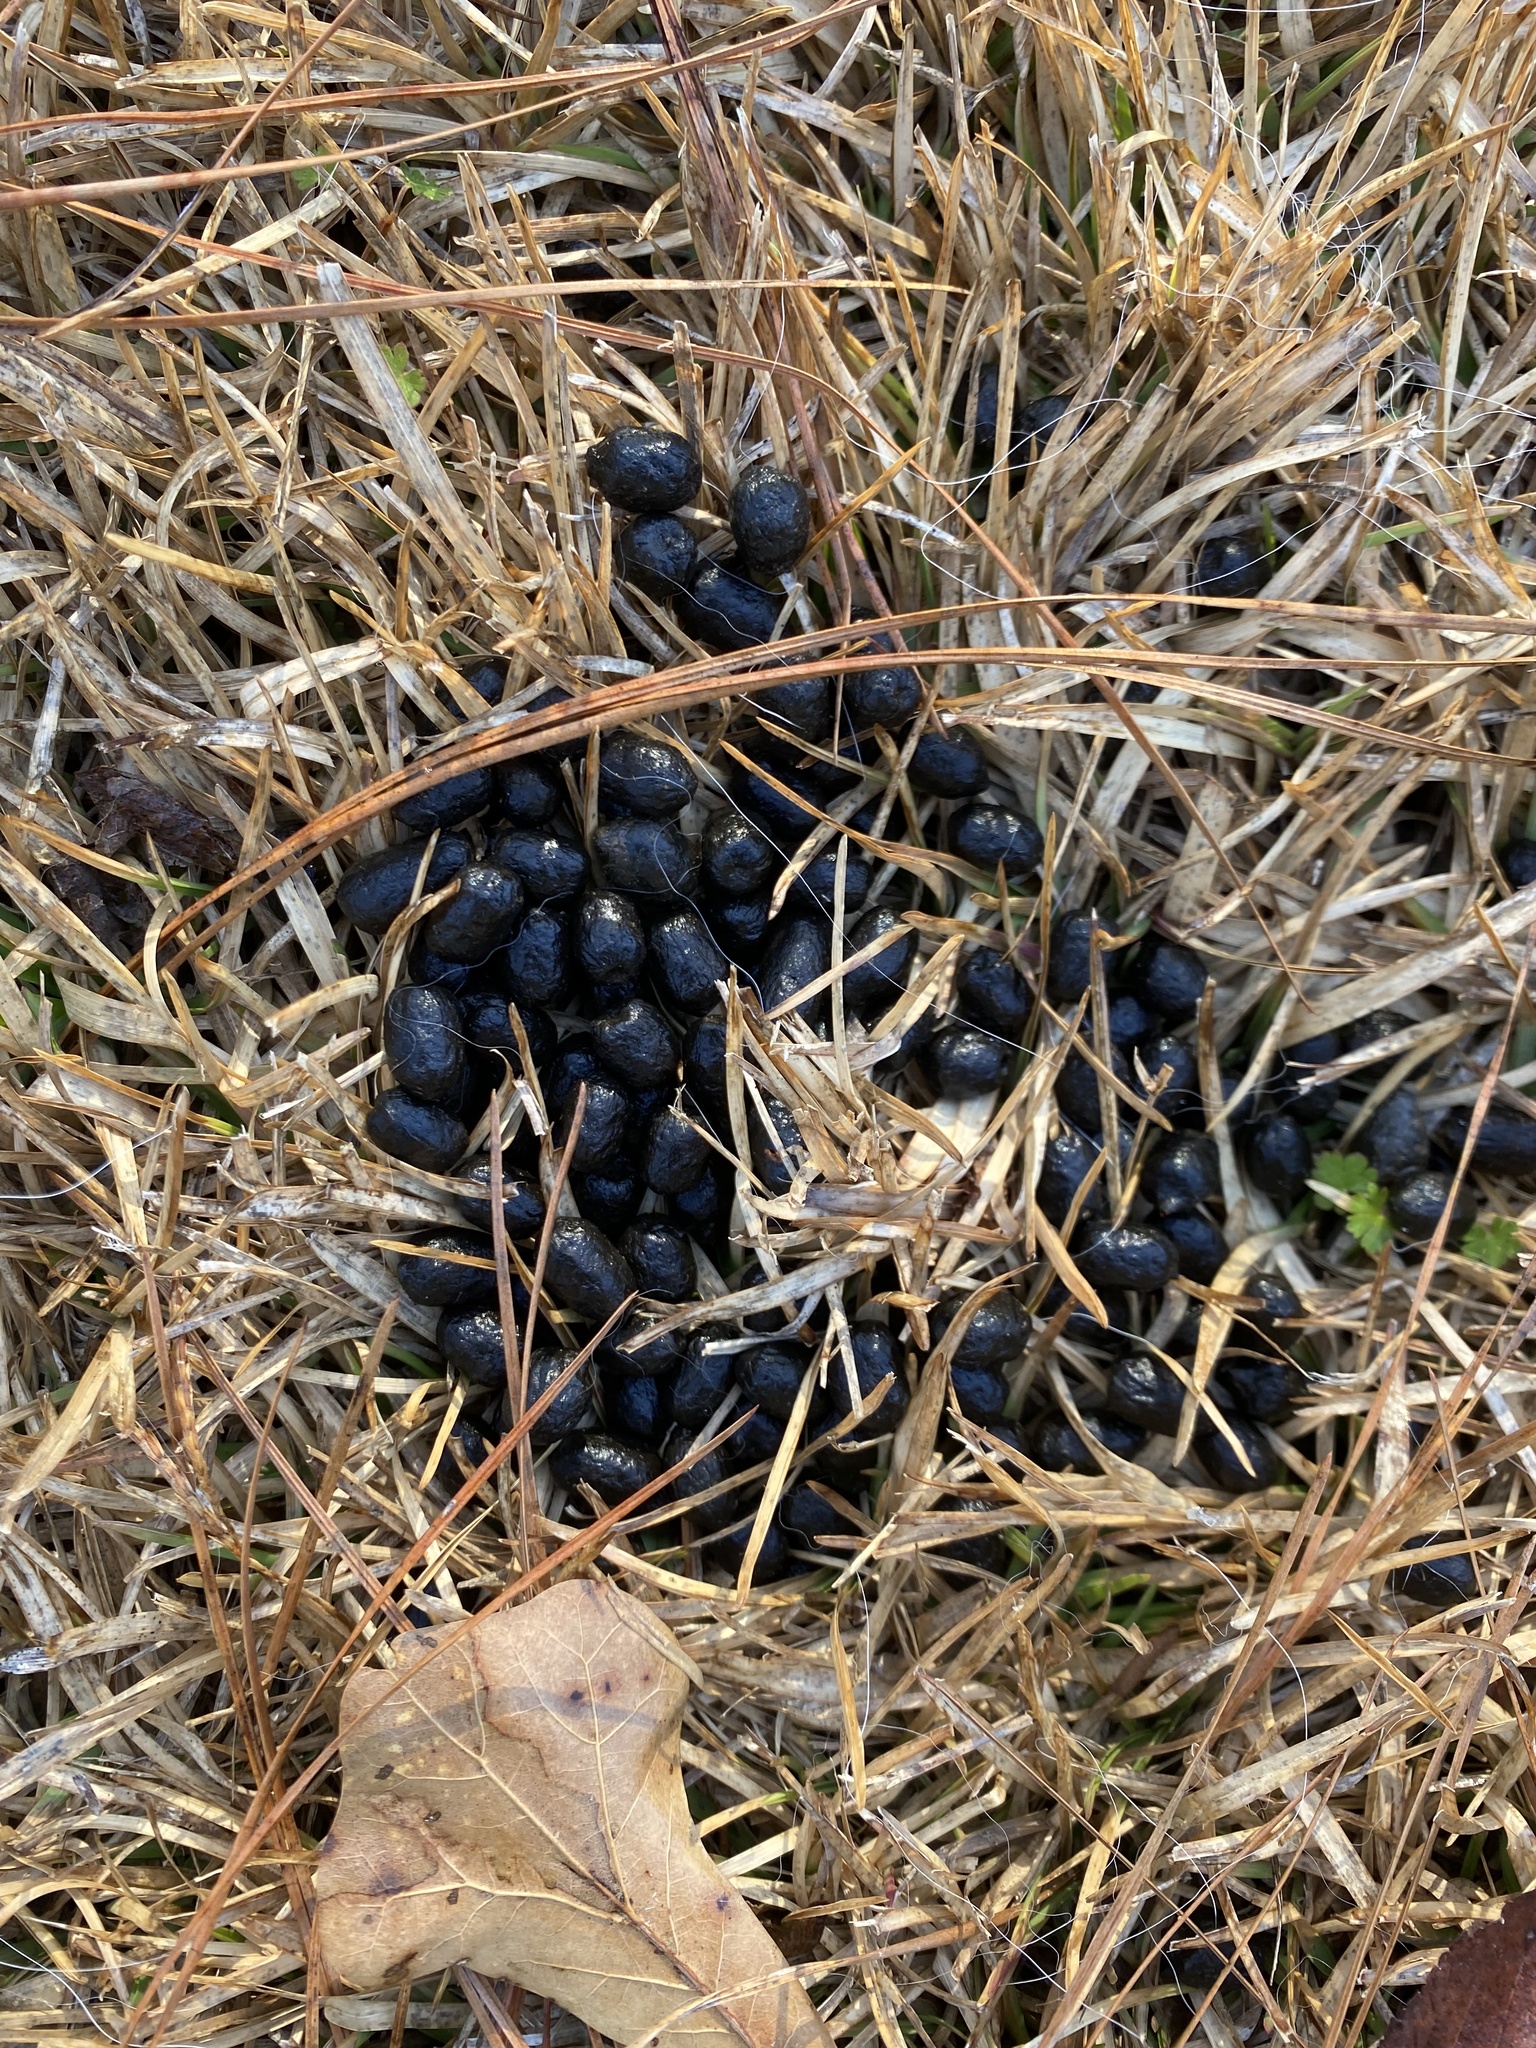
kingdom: Animalia
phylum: Chordata
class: Mammalia
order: Artiodactyla
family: Cervidae
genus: Odocoileus
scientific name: Odocoileus virginianus
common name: White-tailed deer
